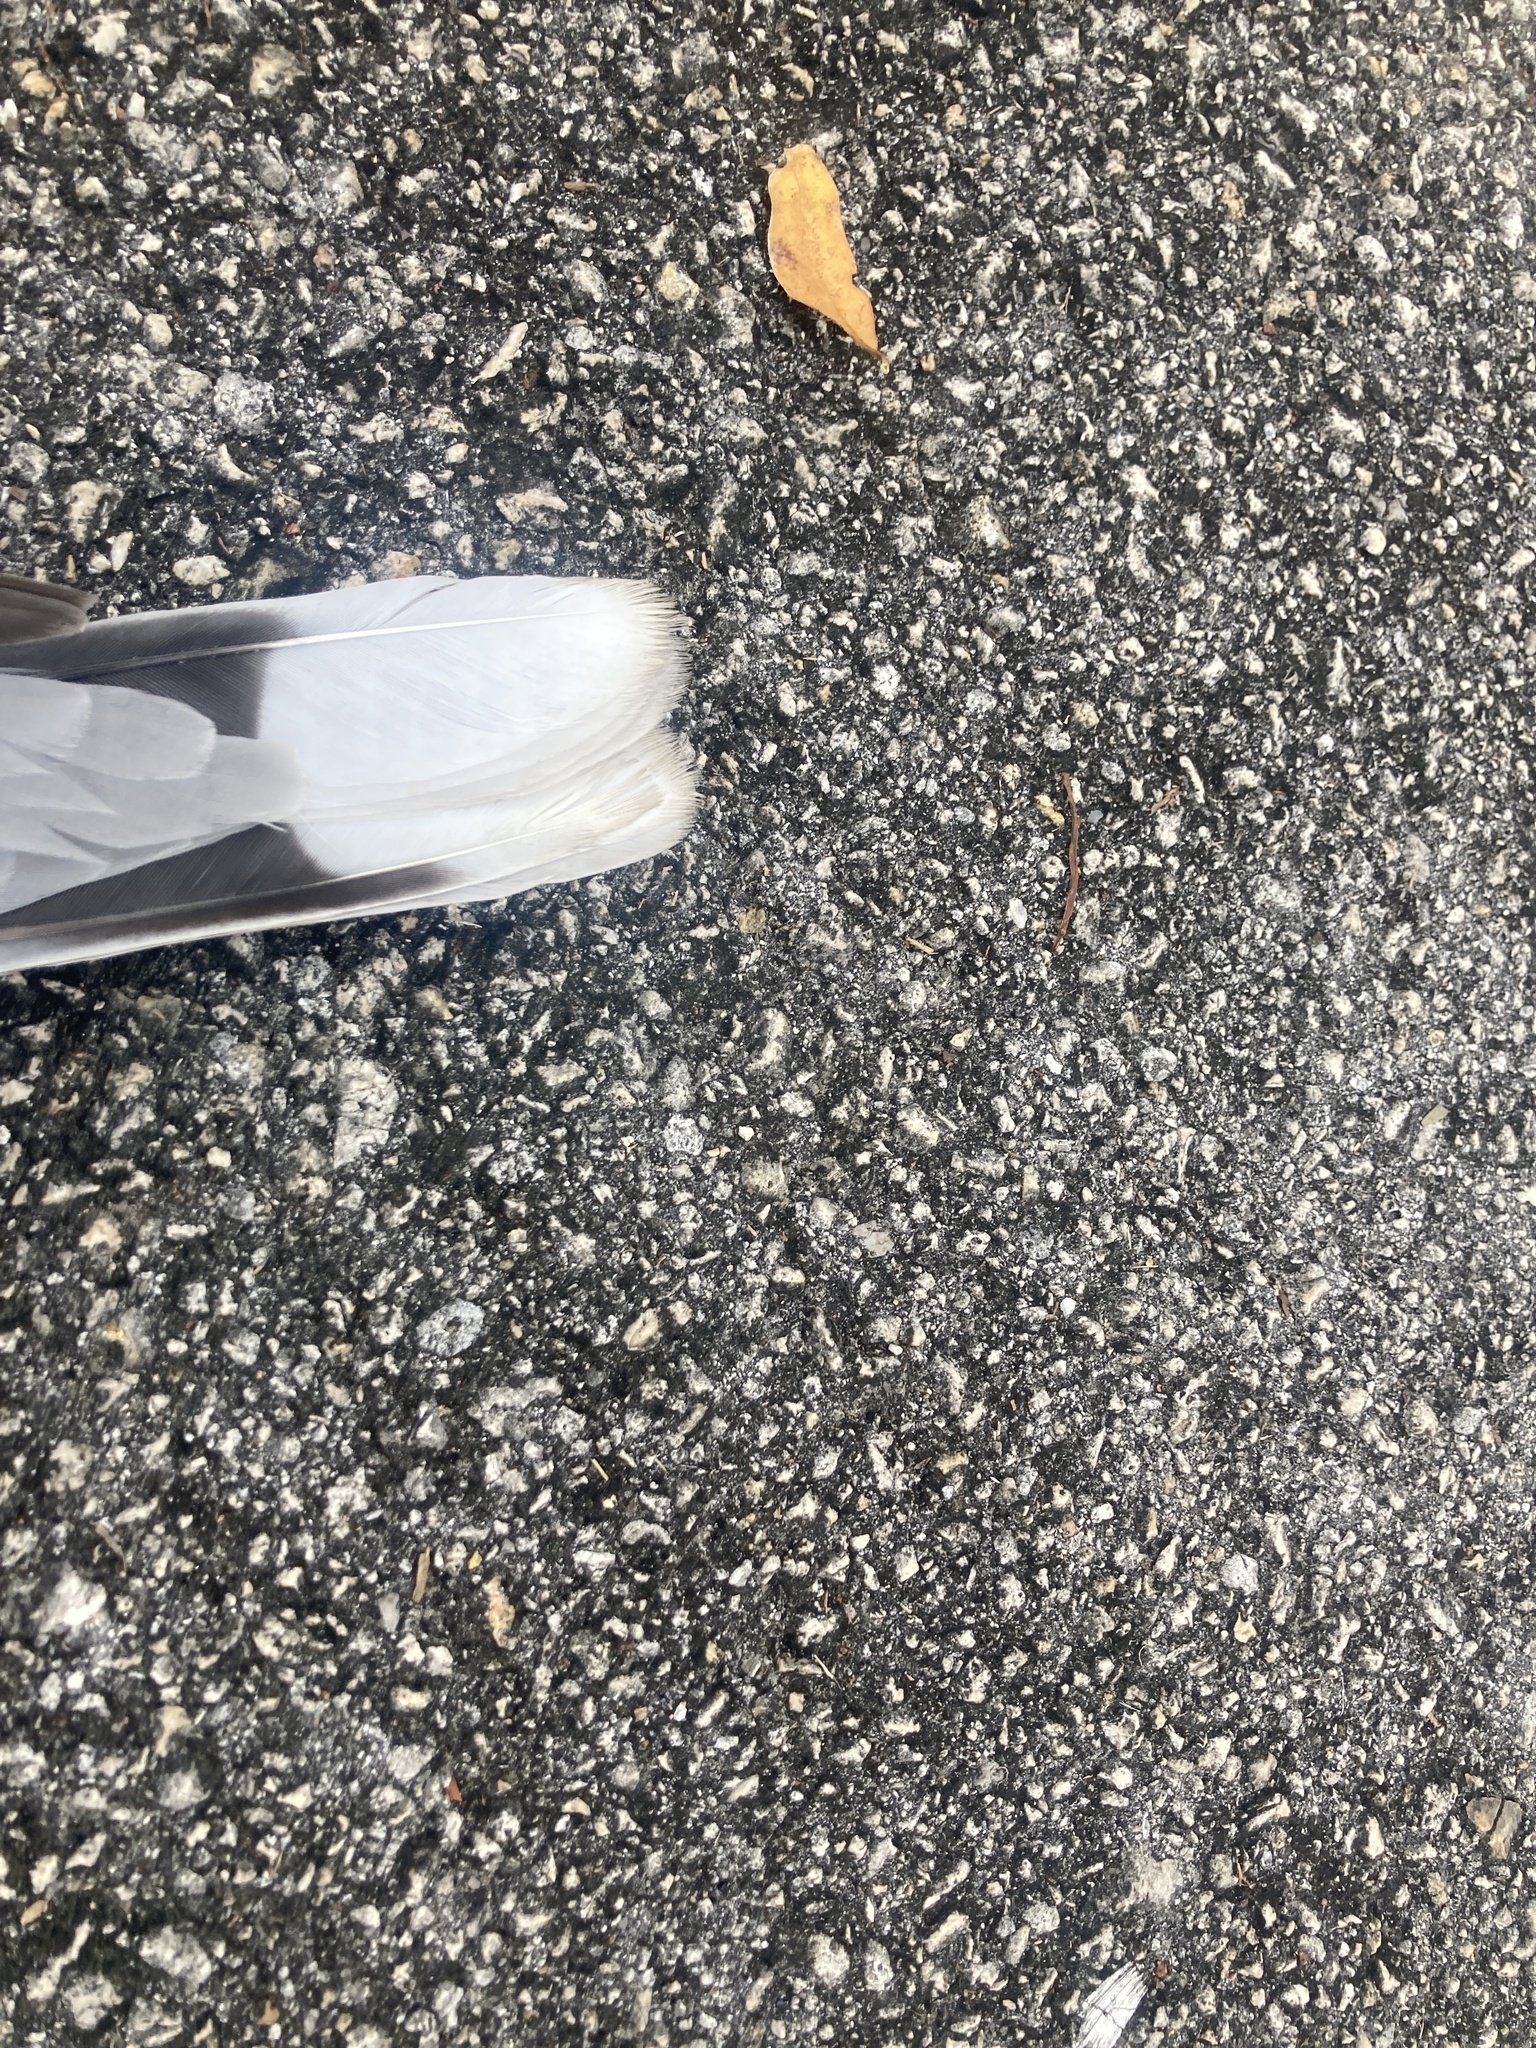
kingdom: Animalia
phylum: Chordata
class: Aves
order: Columbiformes
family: Columbidae
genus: Streptopelia
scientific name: Streptopelia decaocto
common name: Eurasian collared dove
